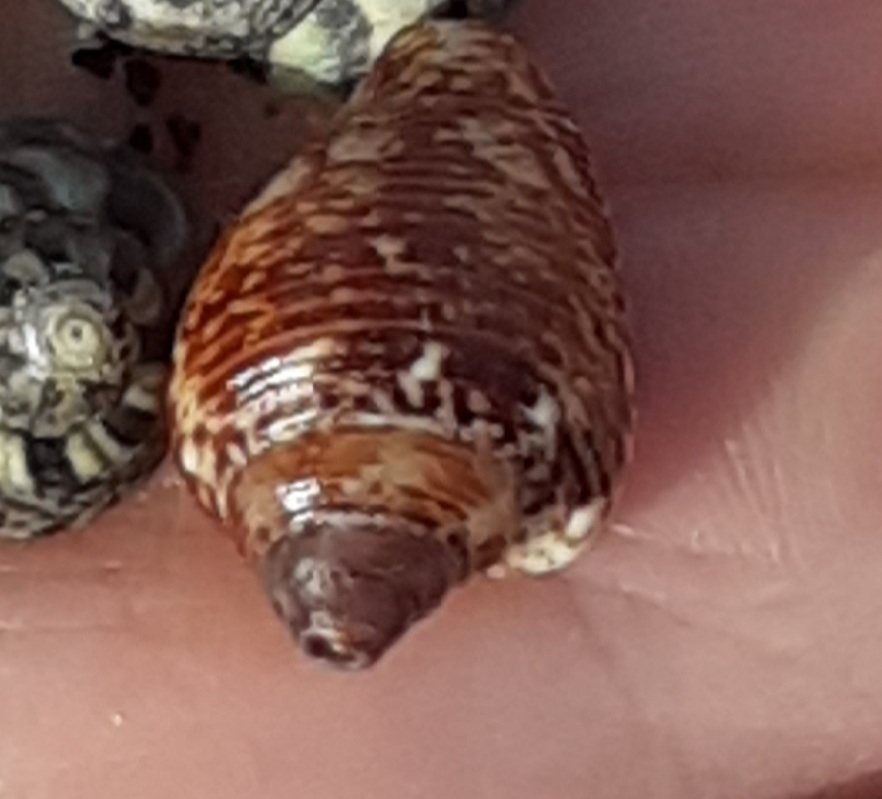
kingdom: Animalia
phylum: Mollusca
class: Gastropoda
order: Neogastropoda
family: Columbellidae
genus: Columbella
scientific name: Columbella adansoni
